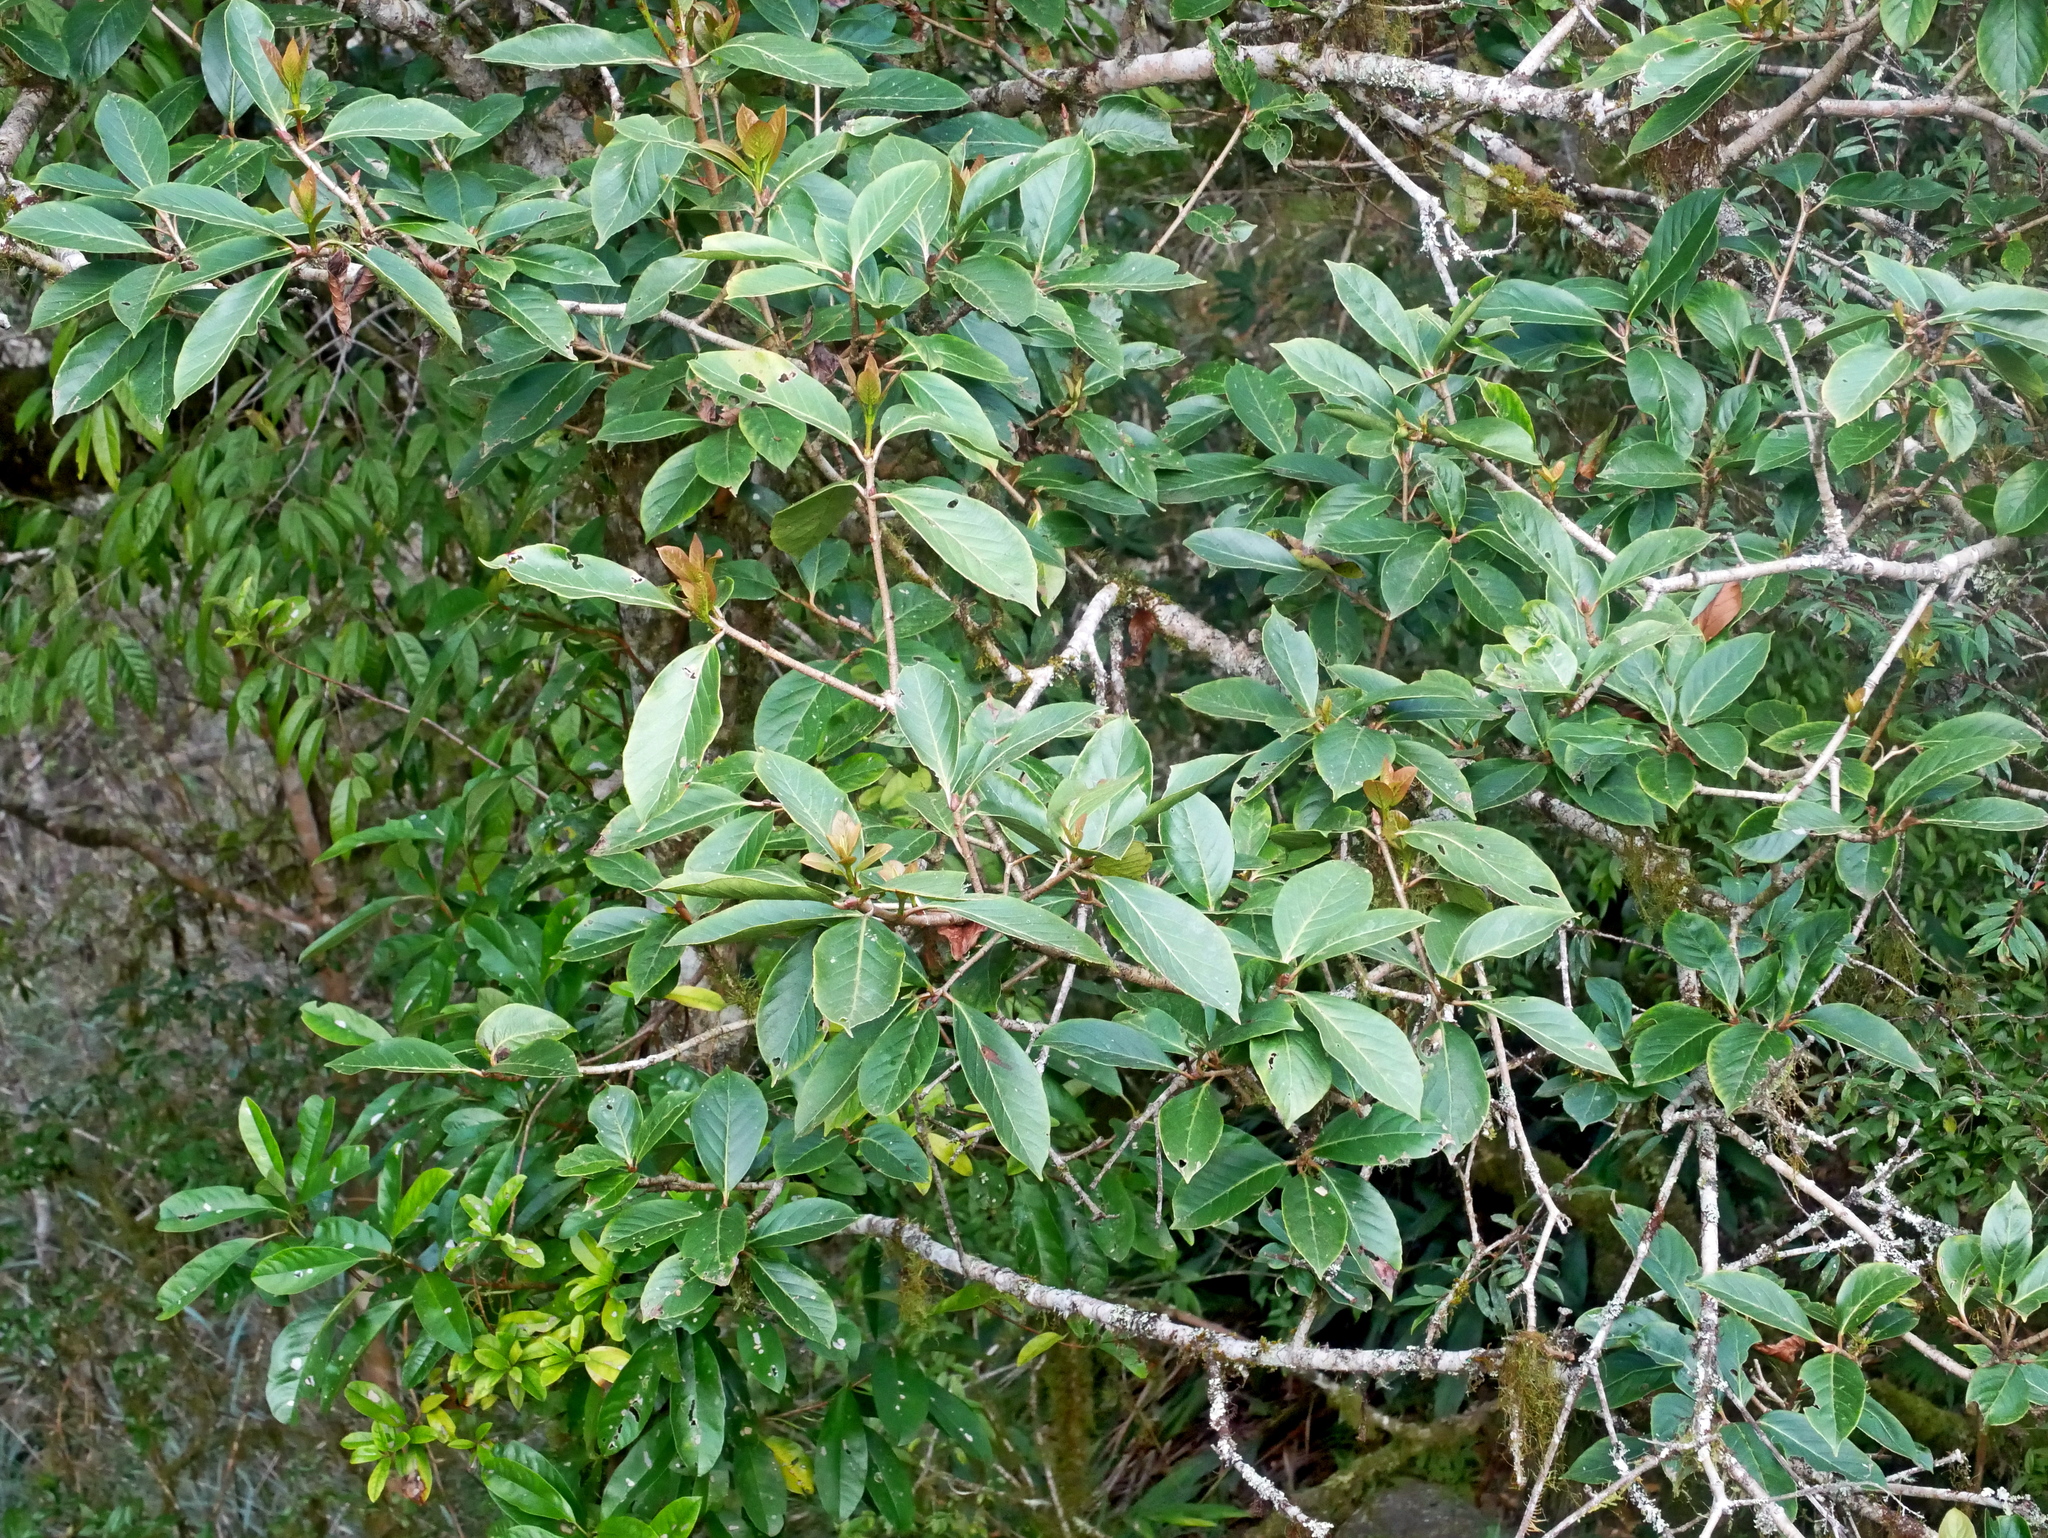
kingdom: Plantae
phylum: Tracheophyta
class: Magnoliopsida
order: Dipsacales
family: Viburnaceae
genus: Viburnum
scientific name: Viburnum odoratissimum
